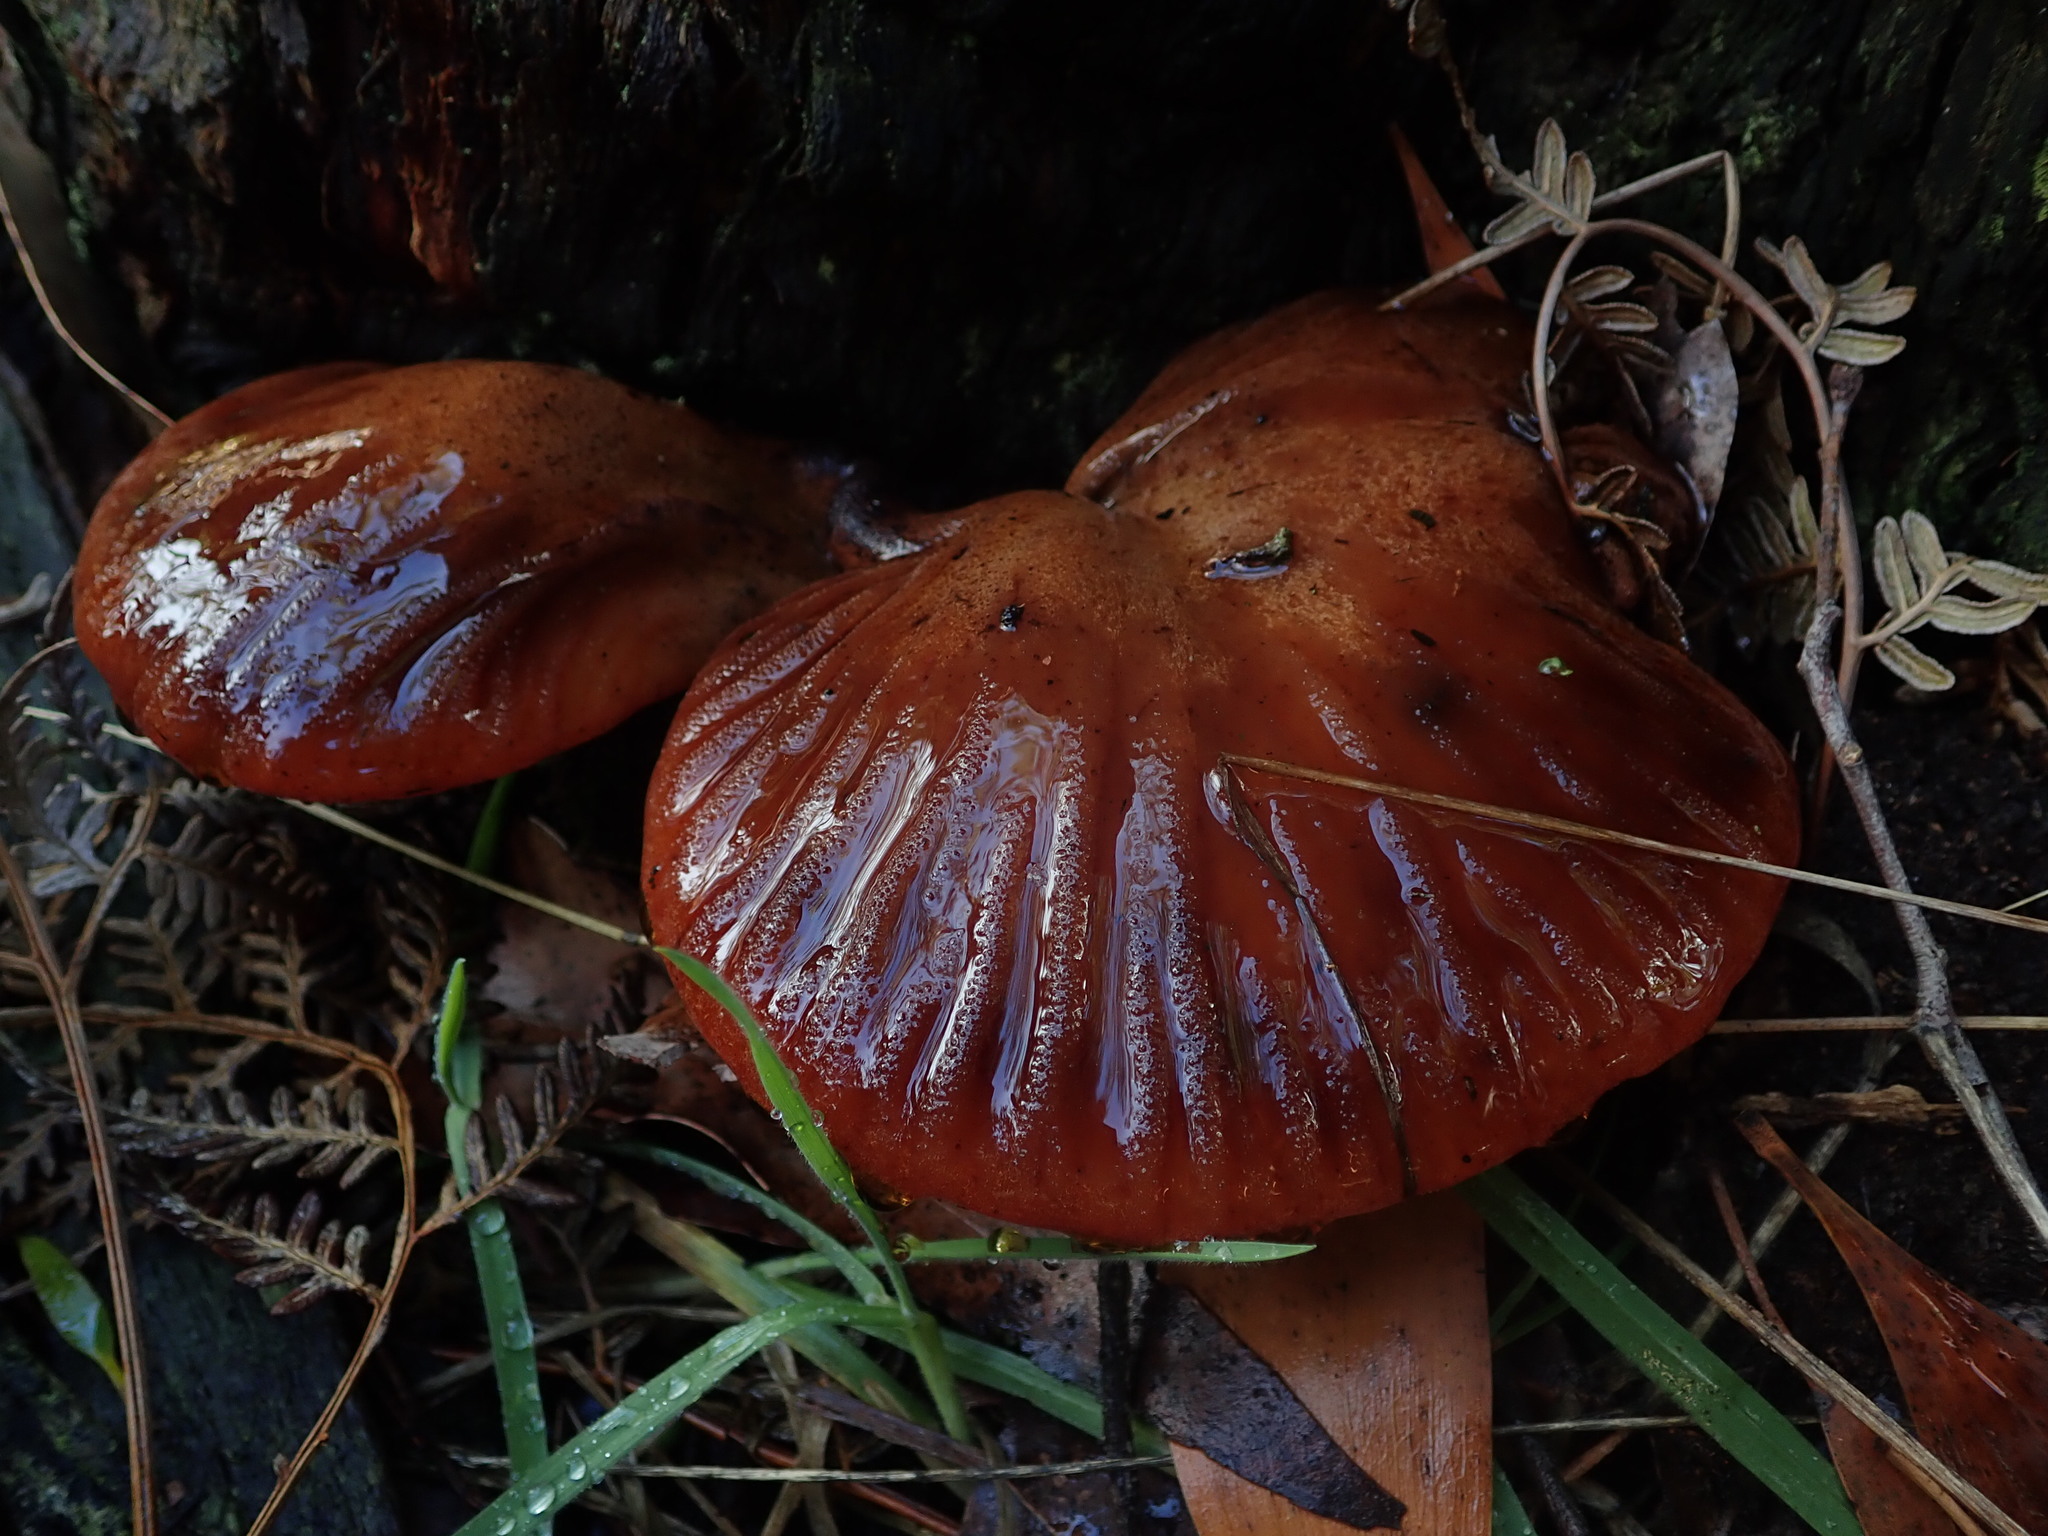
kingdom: Fungi
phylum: Basidiomycota
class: Agaricomycetes
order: Agaricales
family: Fistulinaceae
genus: Fistulina
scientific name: Fistulina spiculifera
